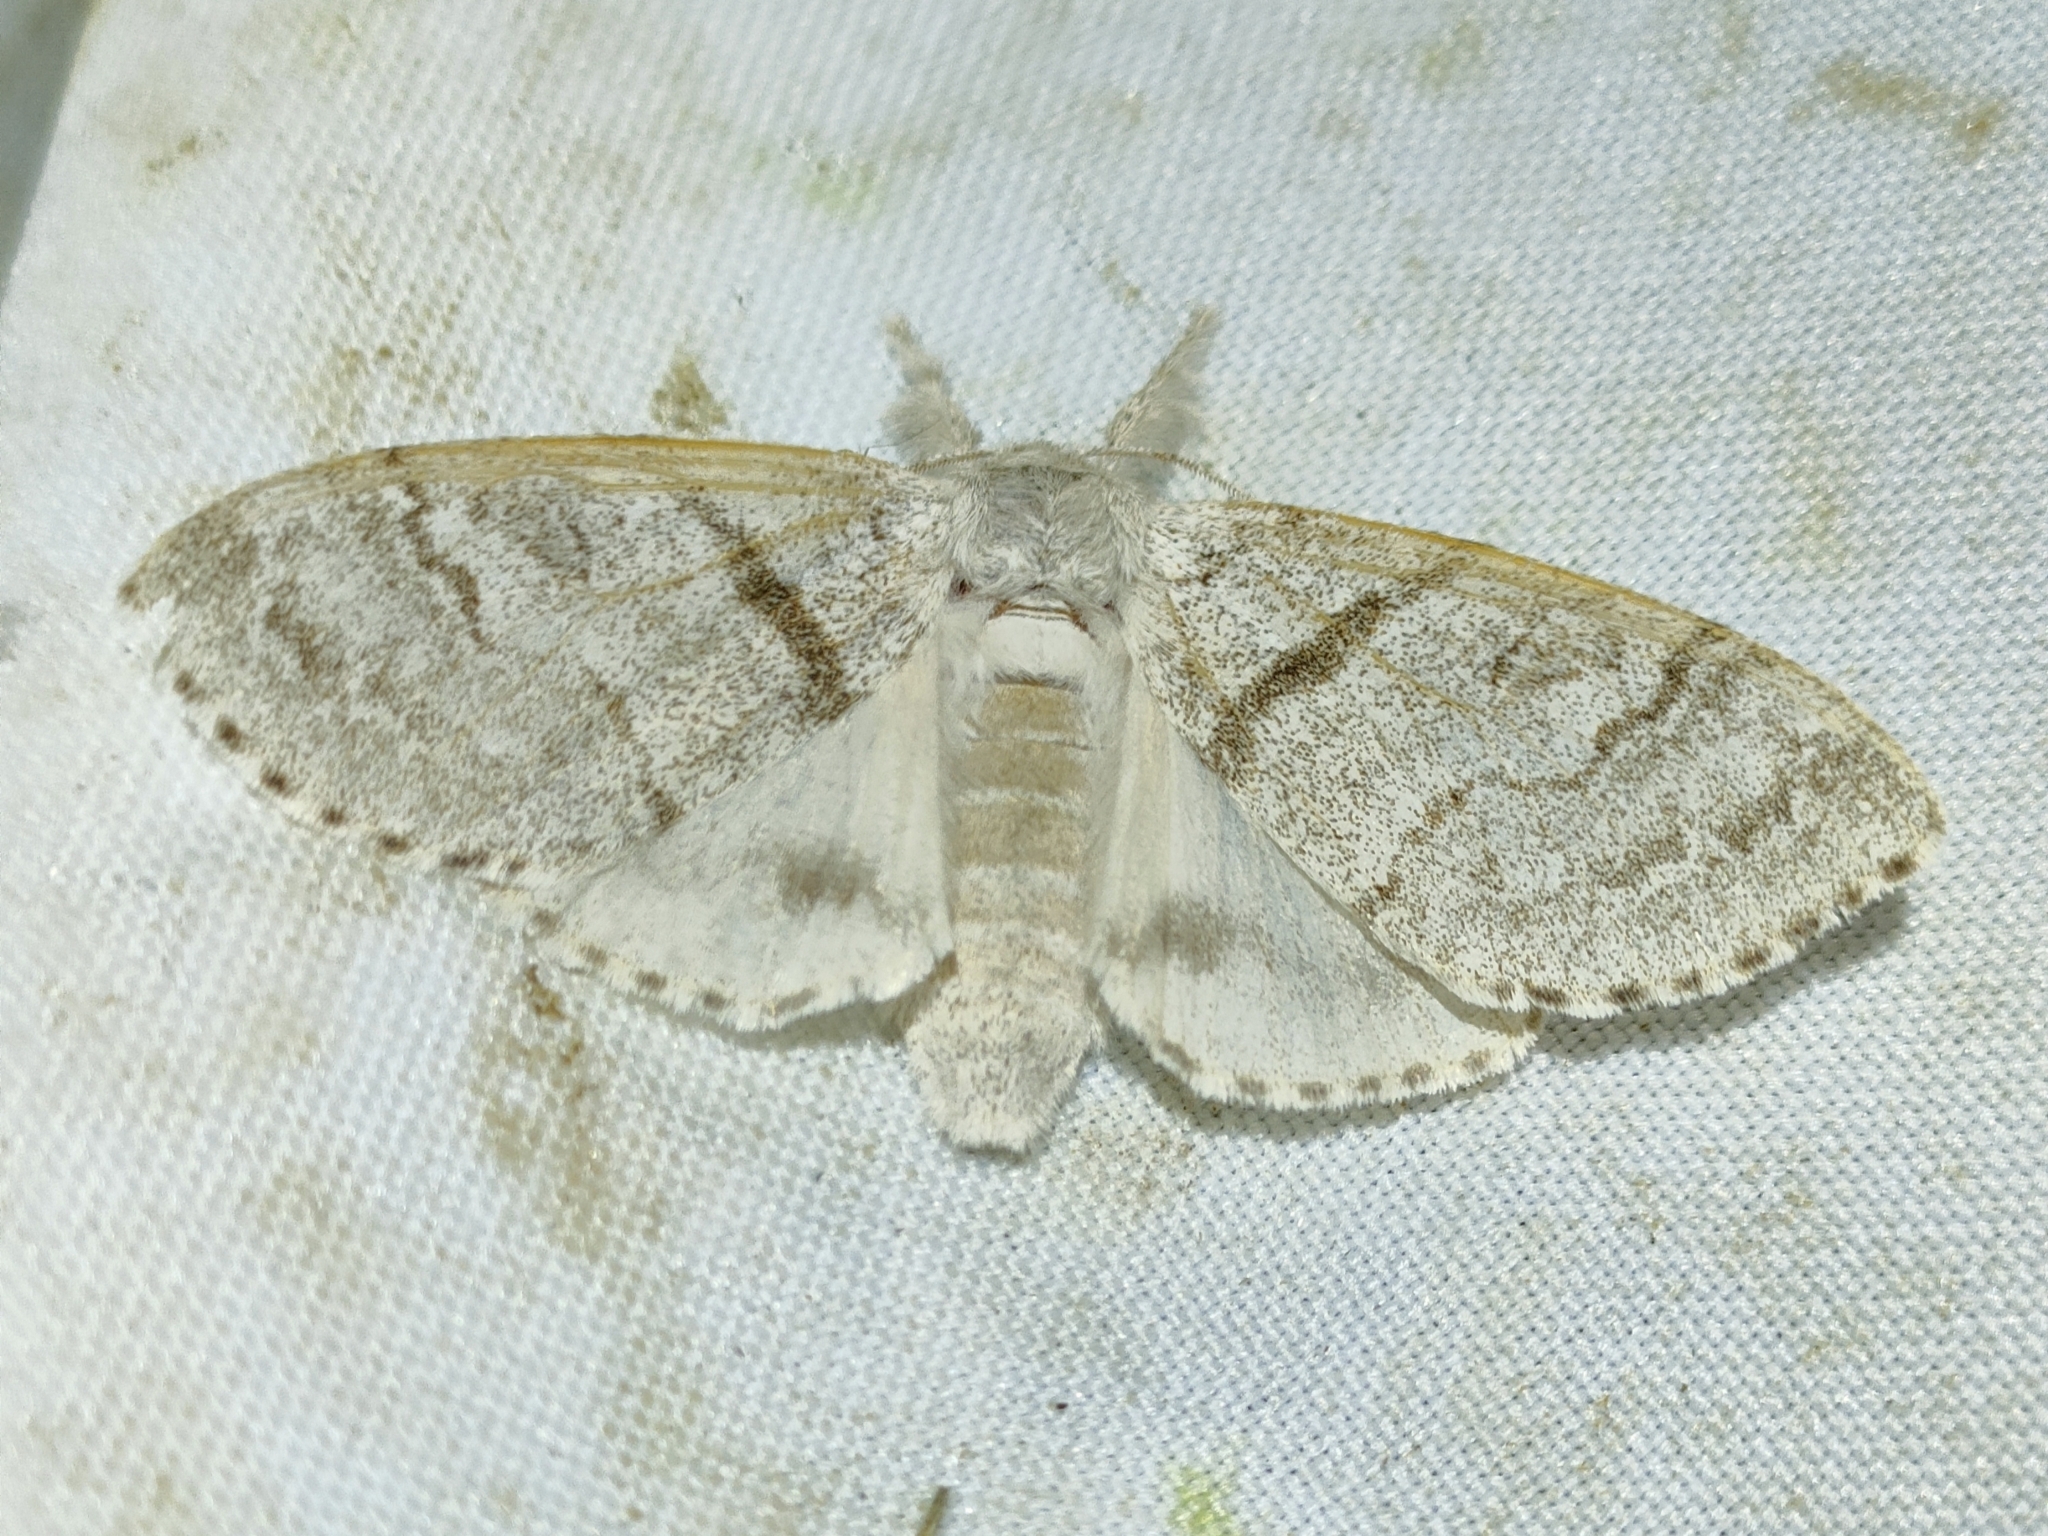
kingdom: Animalia
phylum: Arthropoda
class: Insecta
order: Lepidoptera
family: Erebidae
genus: Calliteara
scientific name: Calliteara pudibunda
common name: Pale tussock
